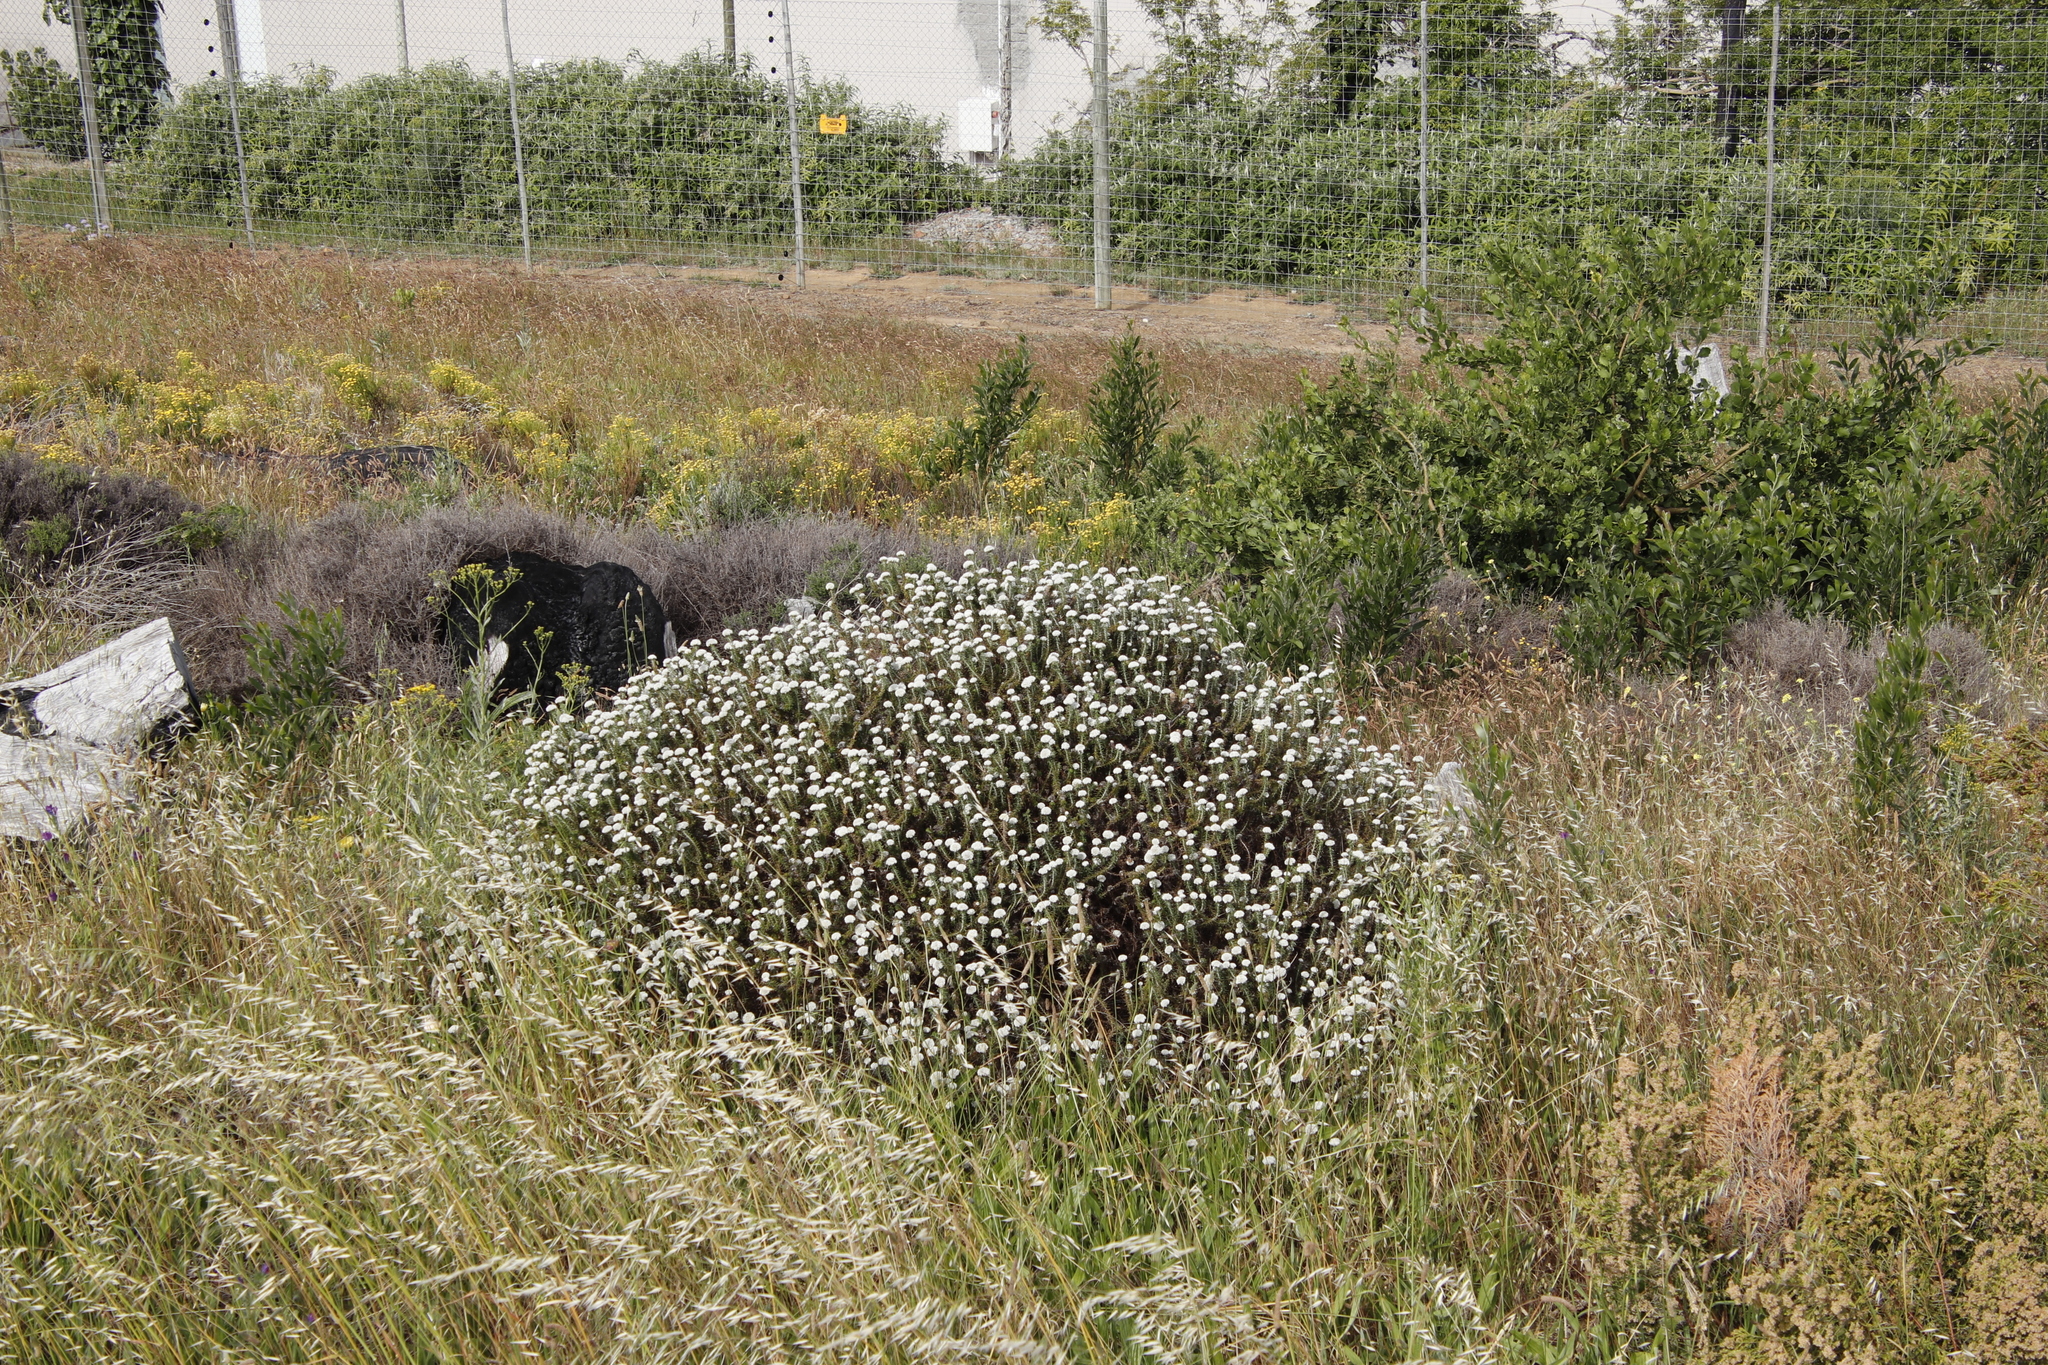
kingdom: Plantae
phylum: Tracheophyta
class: Magnoliopsida
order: Asterales
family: Asteraceae
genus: Metalasia
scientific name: Metalasia pulchella
